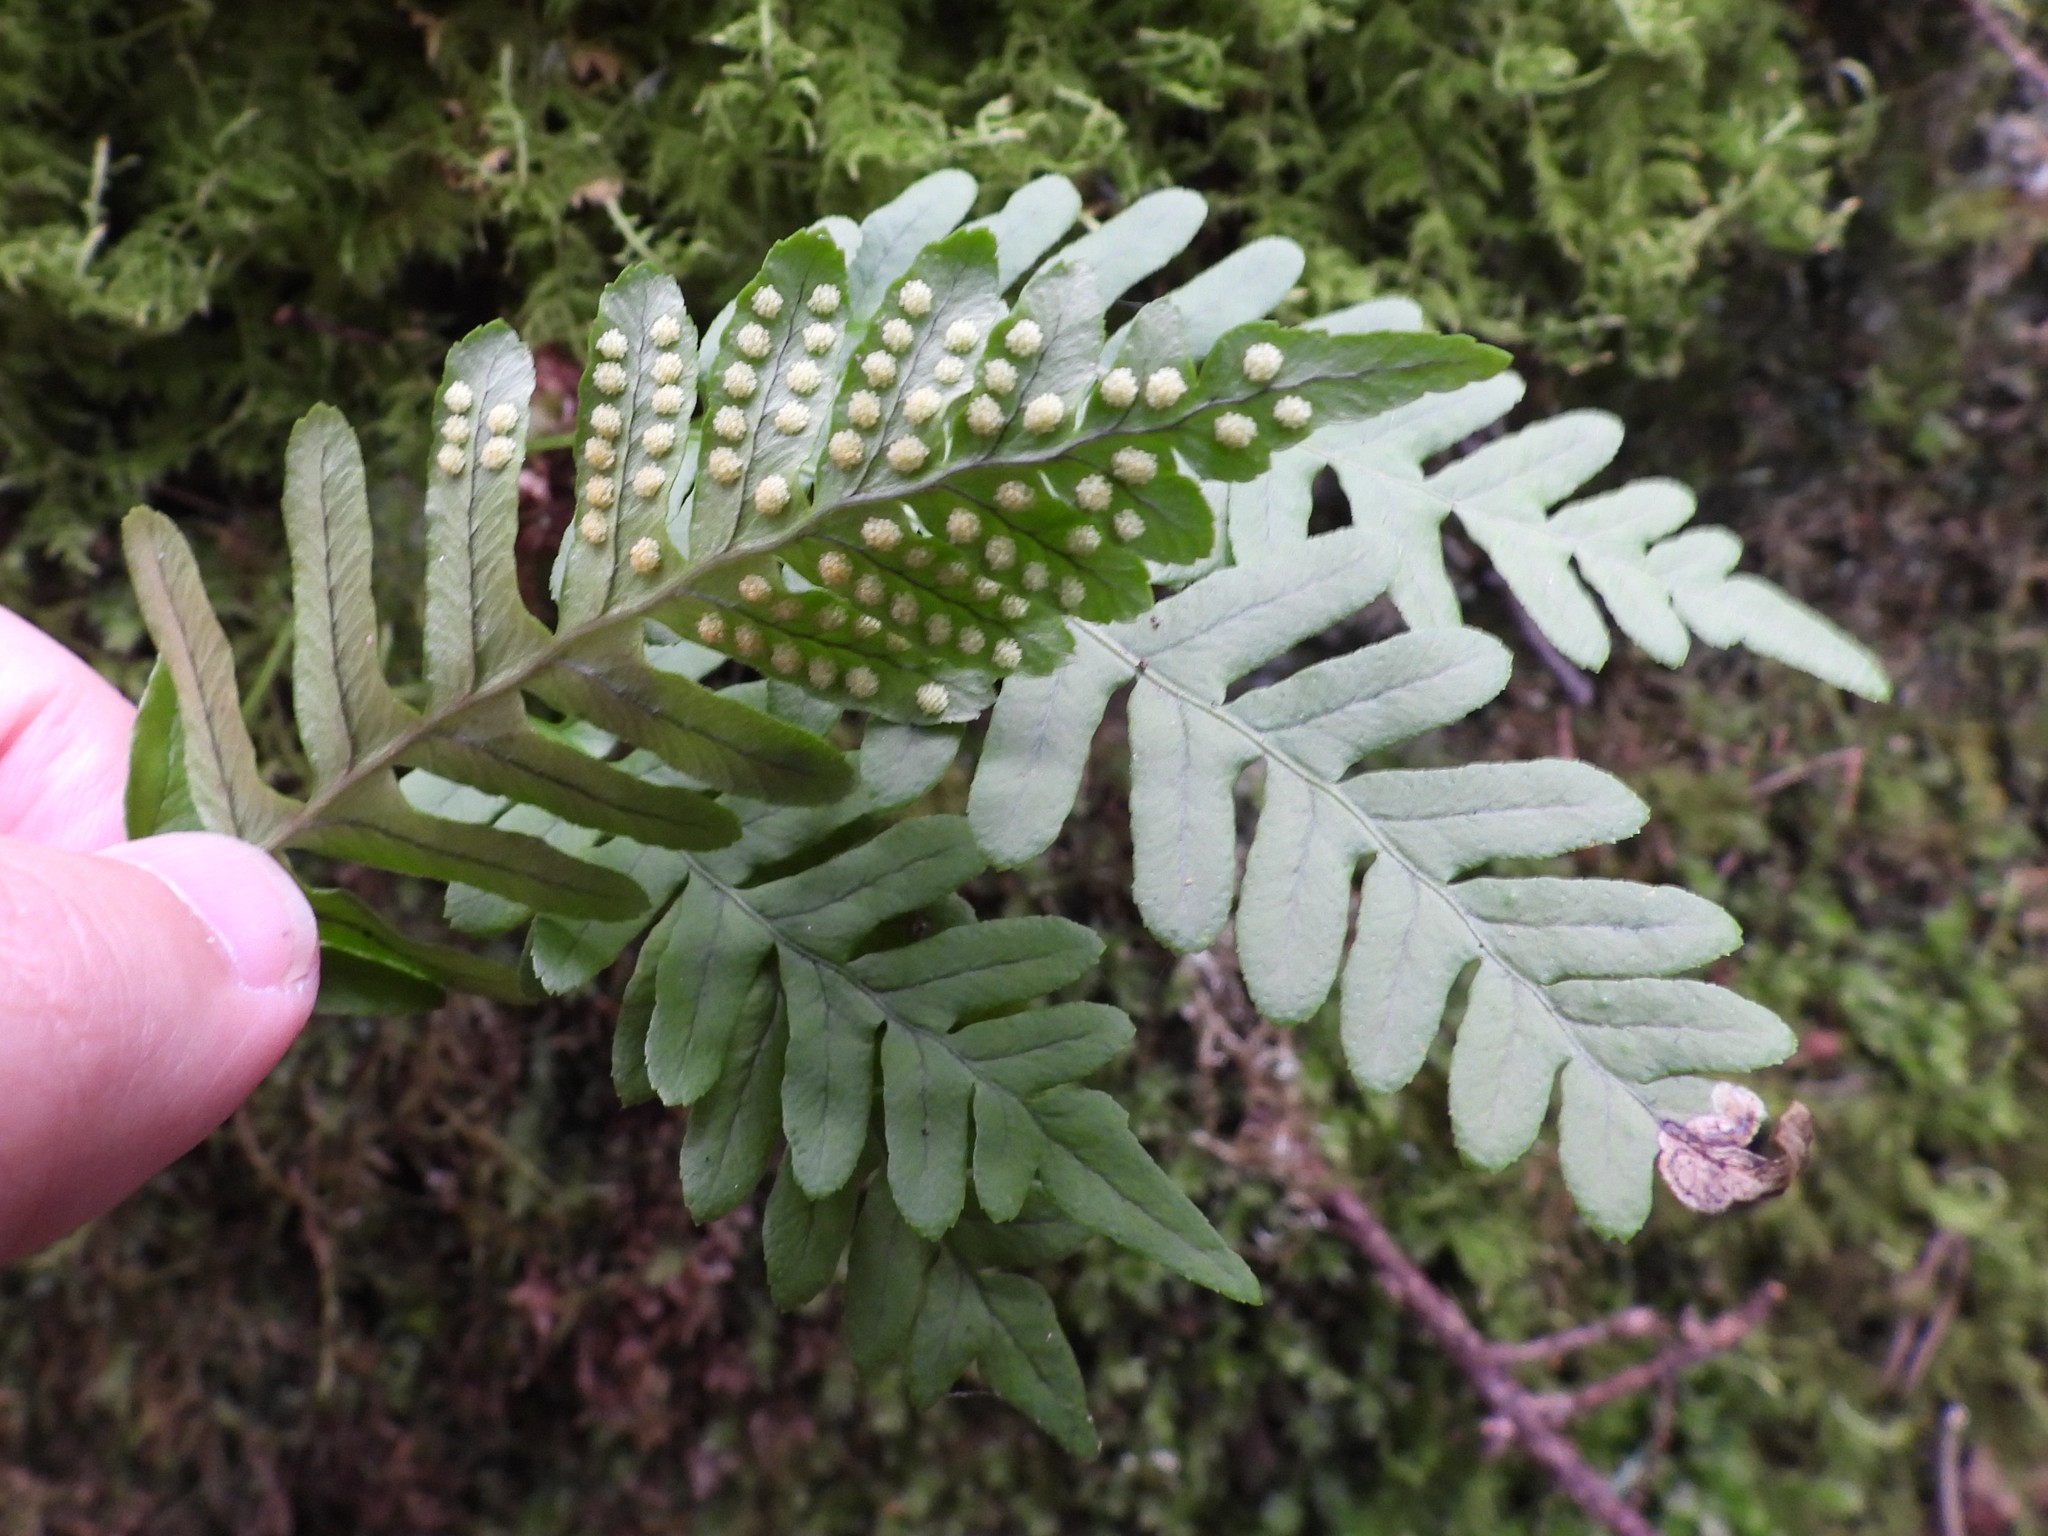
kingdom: Plantae
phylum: Tracheophyta
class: Polypodiopsida
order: Polypodiales
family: Polypodiaceae
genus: Polypodium
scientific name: Polypodium vulgare
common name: Common polypody
